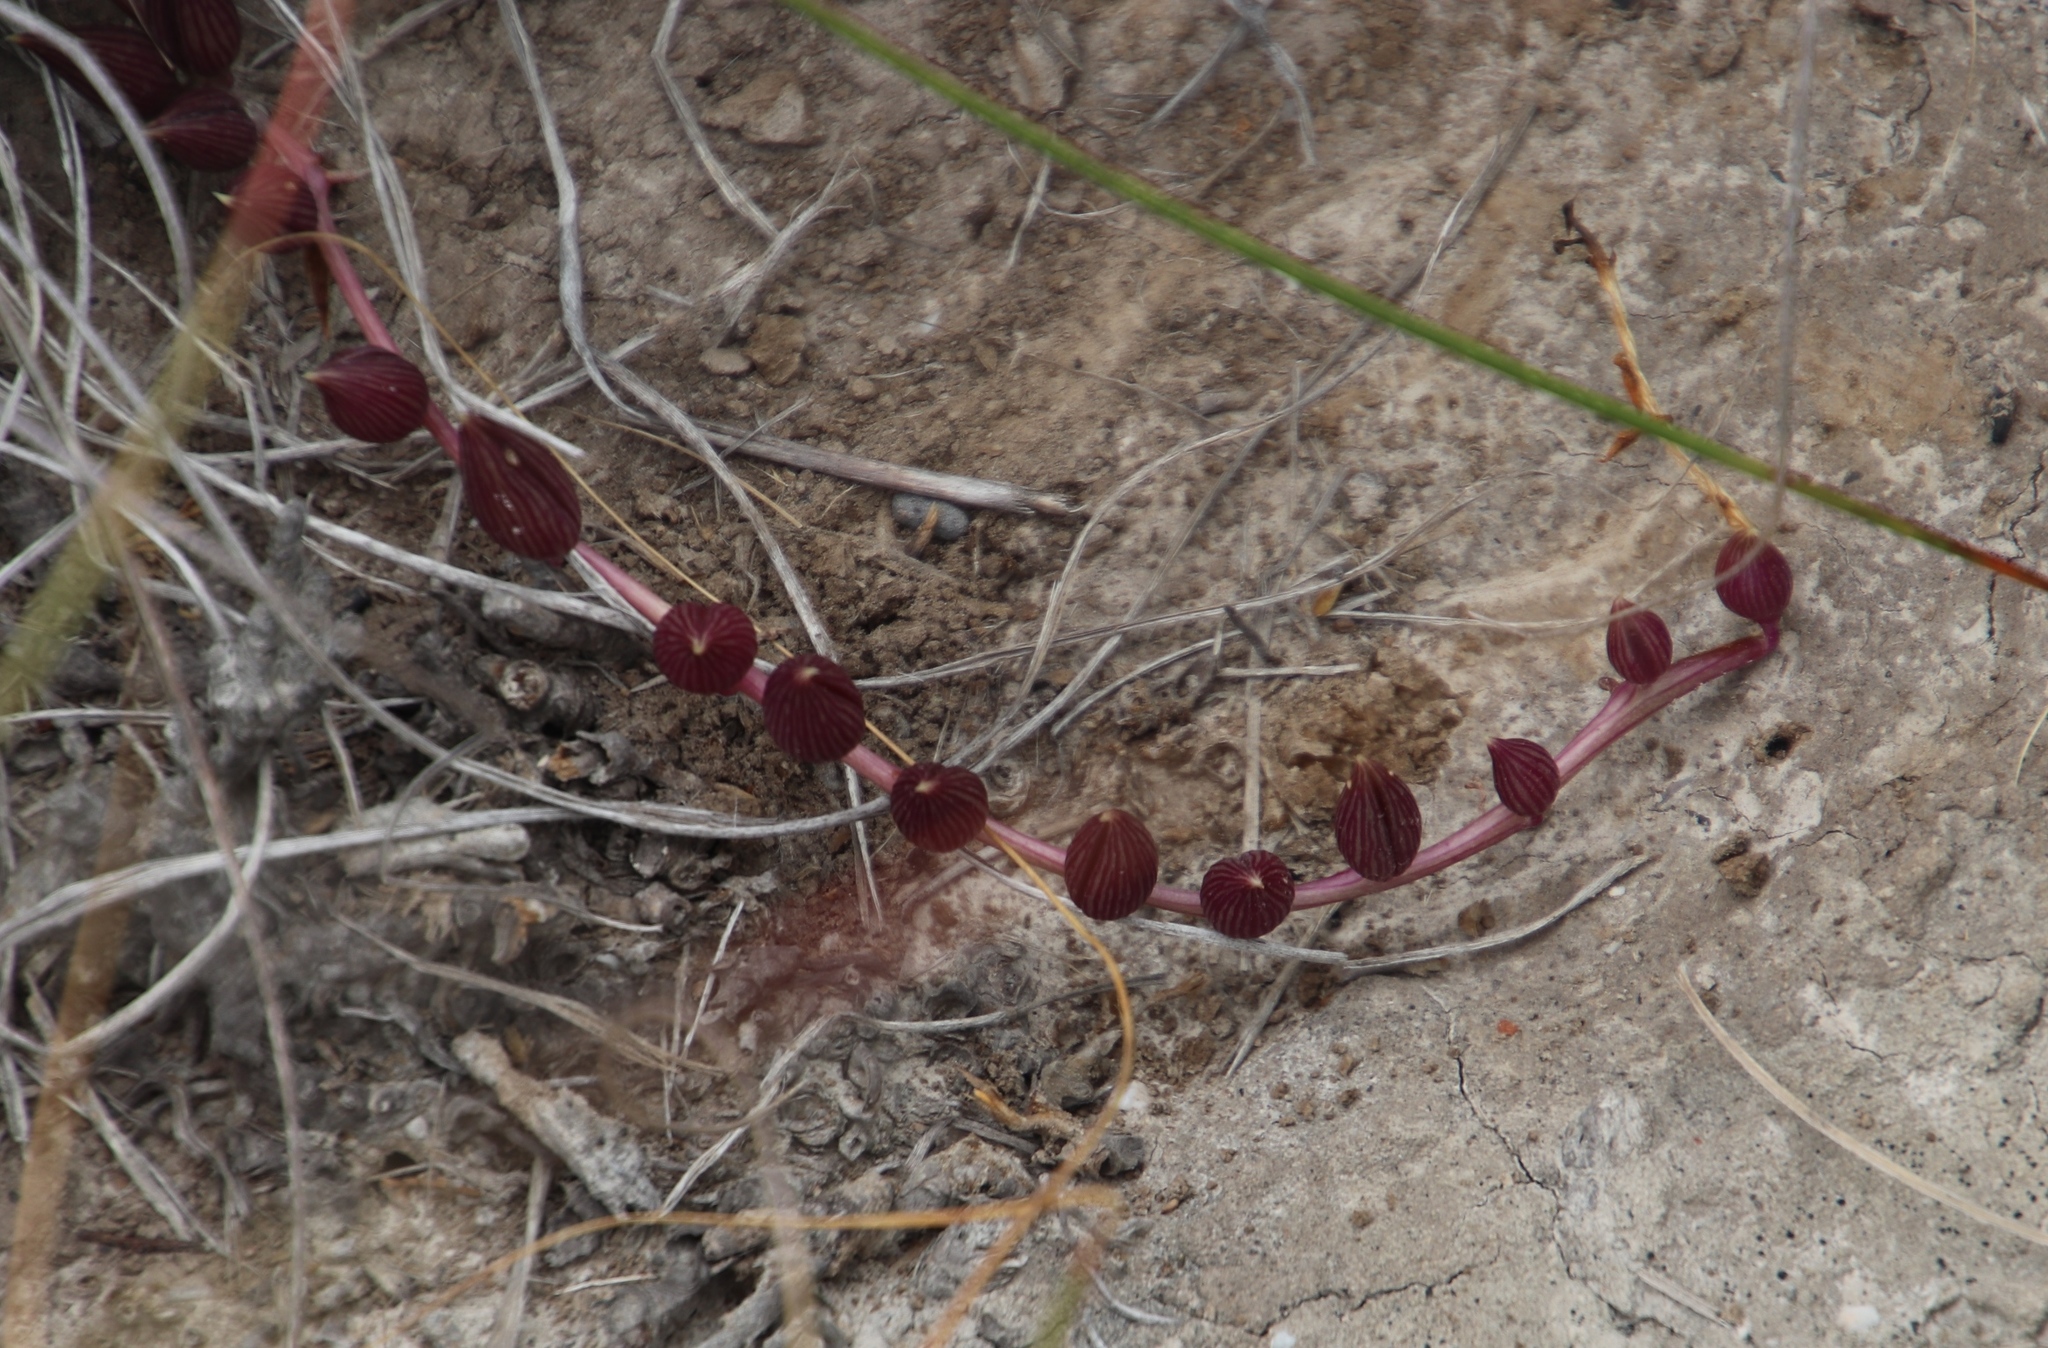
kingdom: Plantae
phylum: Tracheophyta
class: Magnoliopsida
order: Asterales
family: Asteraceae
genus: Curio
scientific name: Curio archeri
